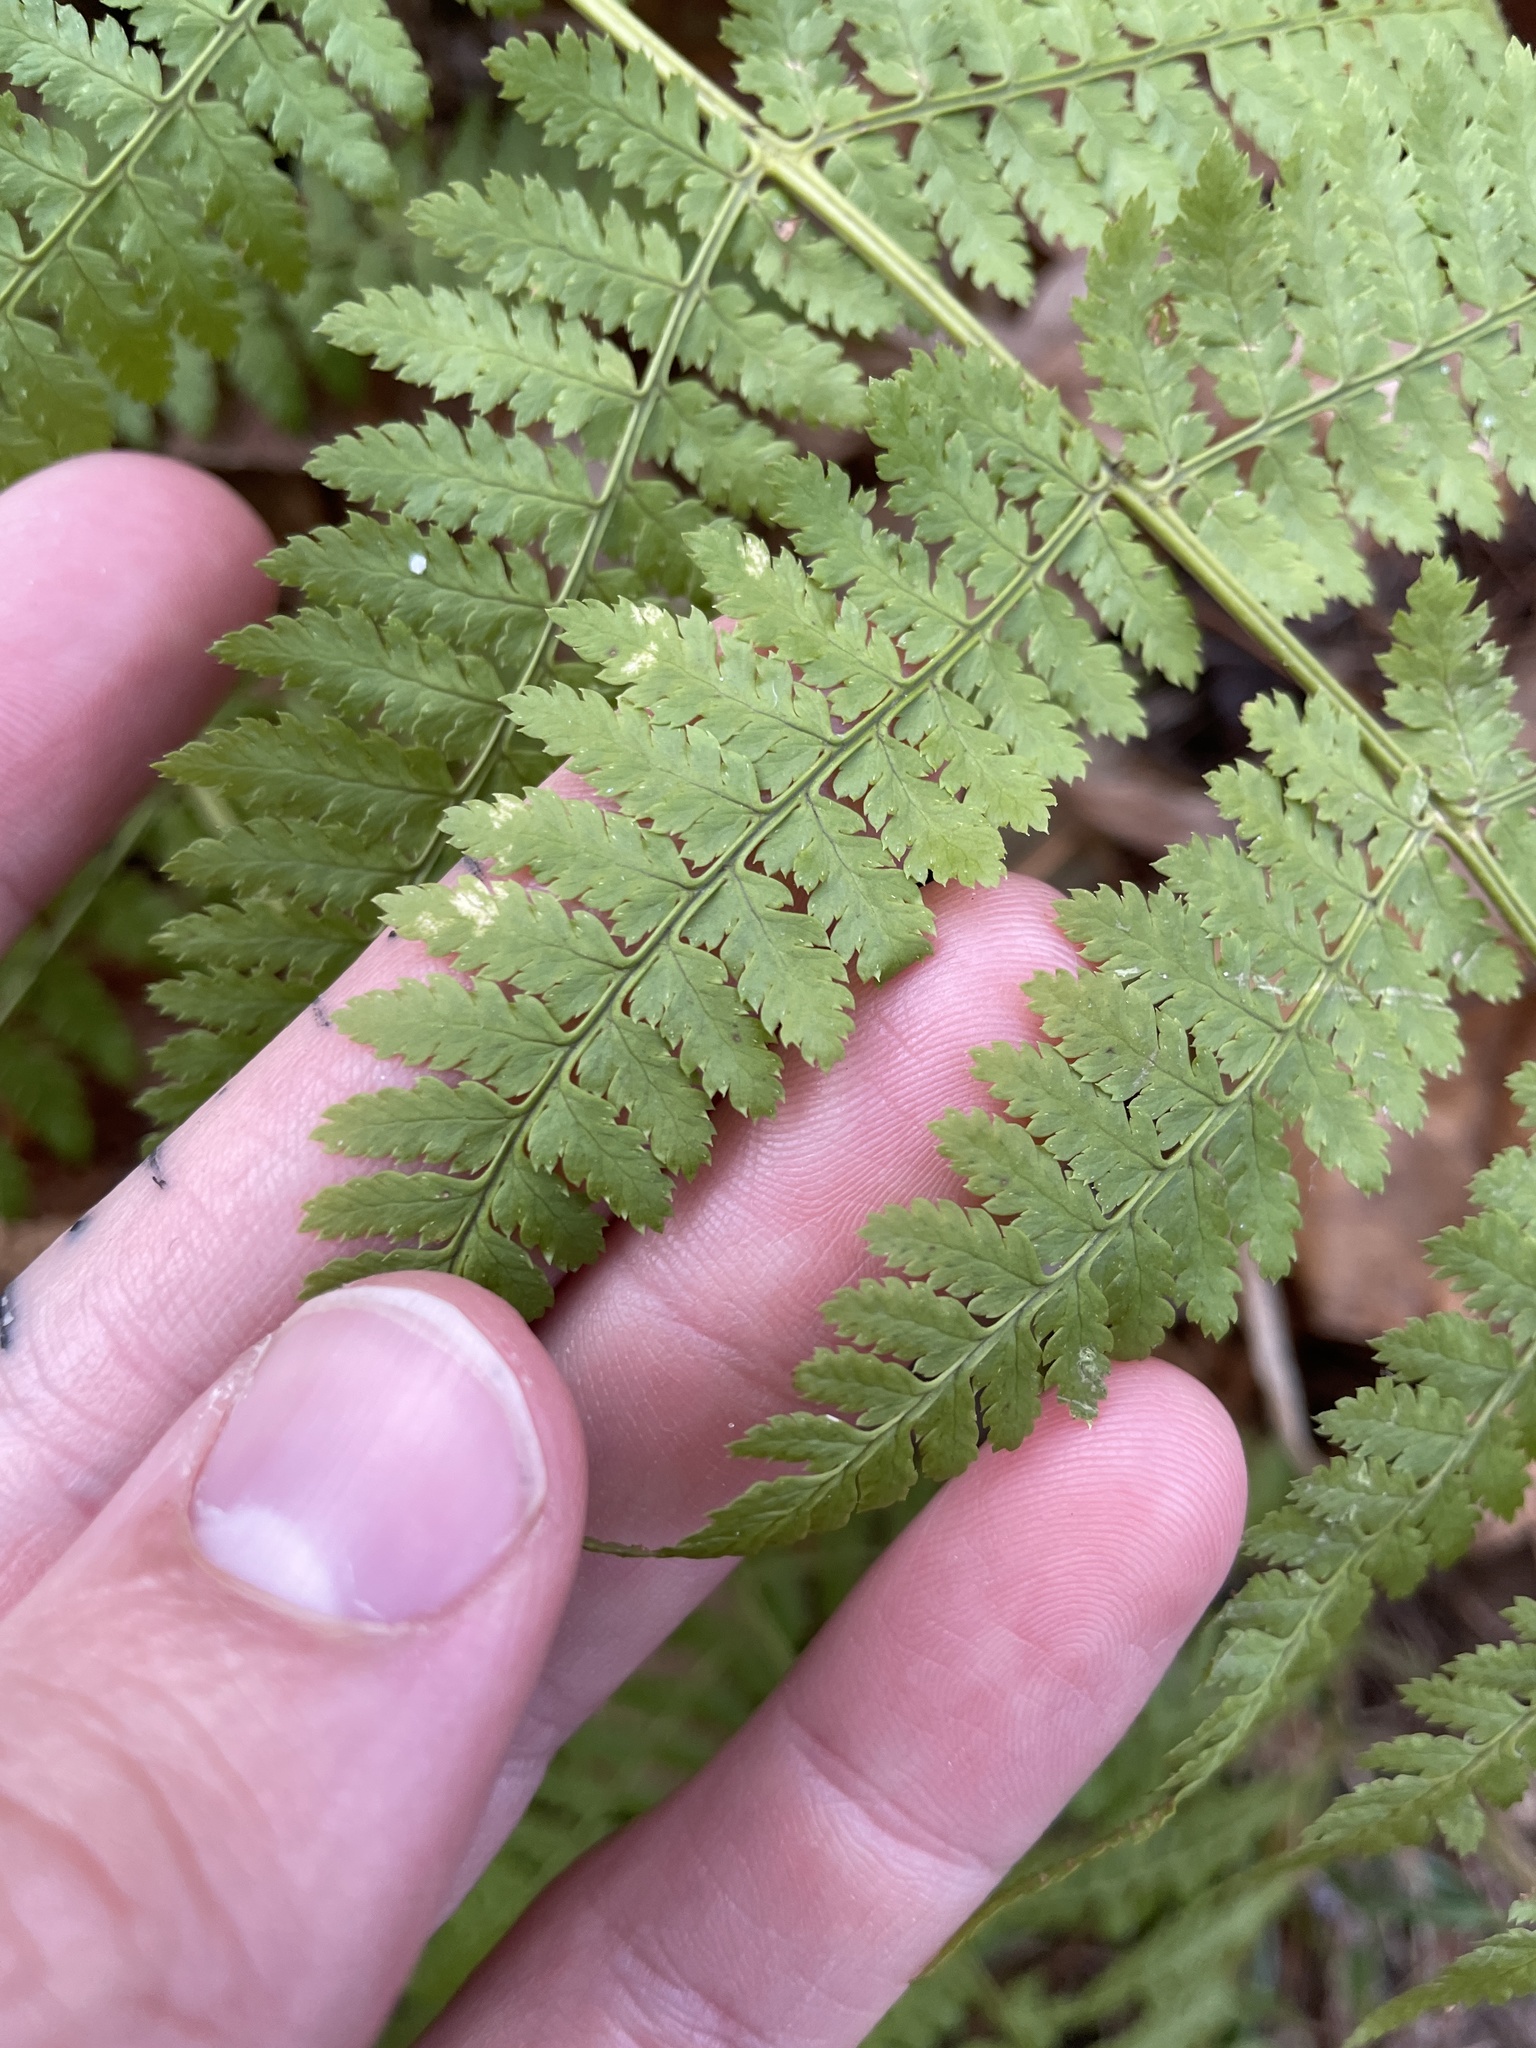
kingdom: Plantae
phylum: Tracheophyta
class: Polypodiopsida
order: Polypodiales
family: Dryopteridaceae
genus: Dryopteris
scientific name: Dryopteris intermedia
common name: Evergreen wood fern
